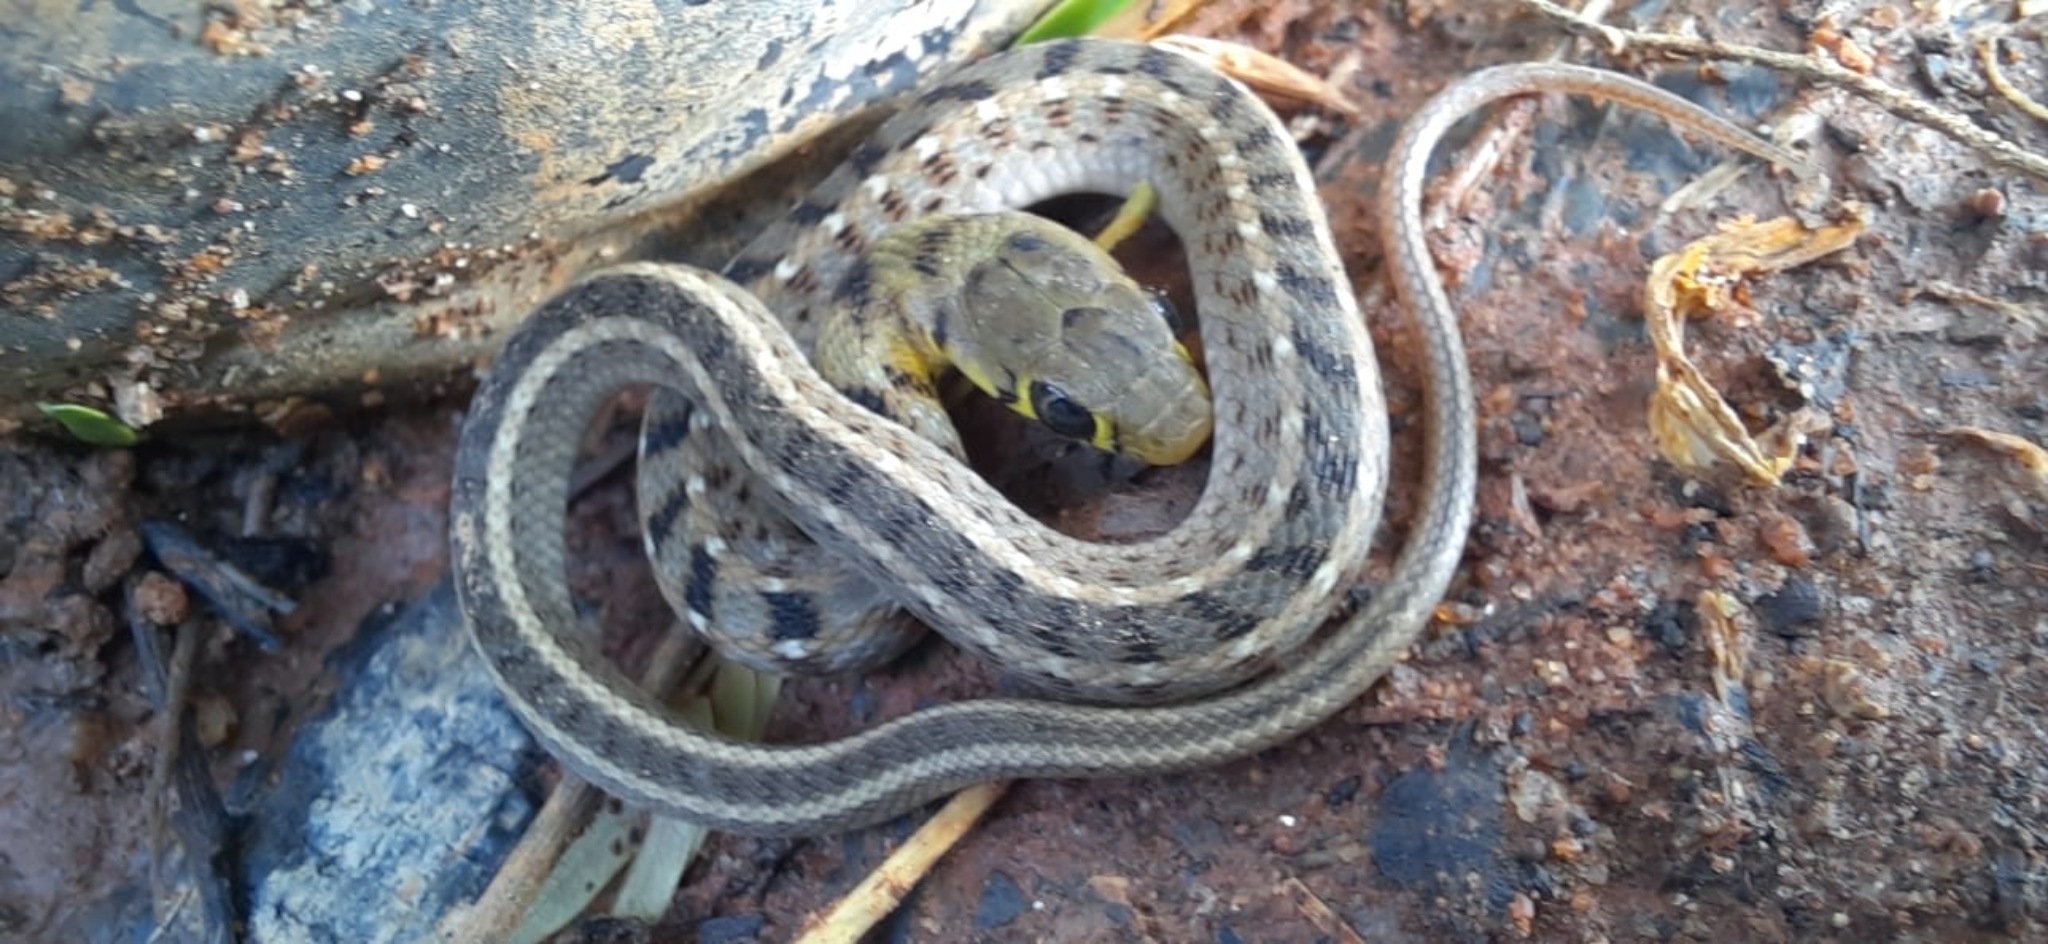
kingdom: Animalia
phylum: Chordata
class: Squamata
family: Colubridae
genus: Amphiesma
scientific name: Amphiesma stolatum
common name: Buff striped keelback
